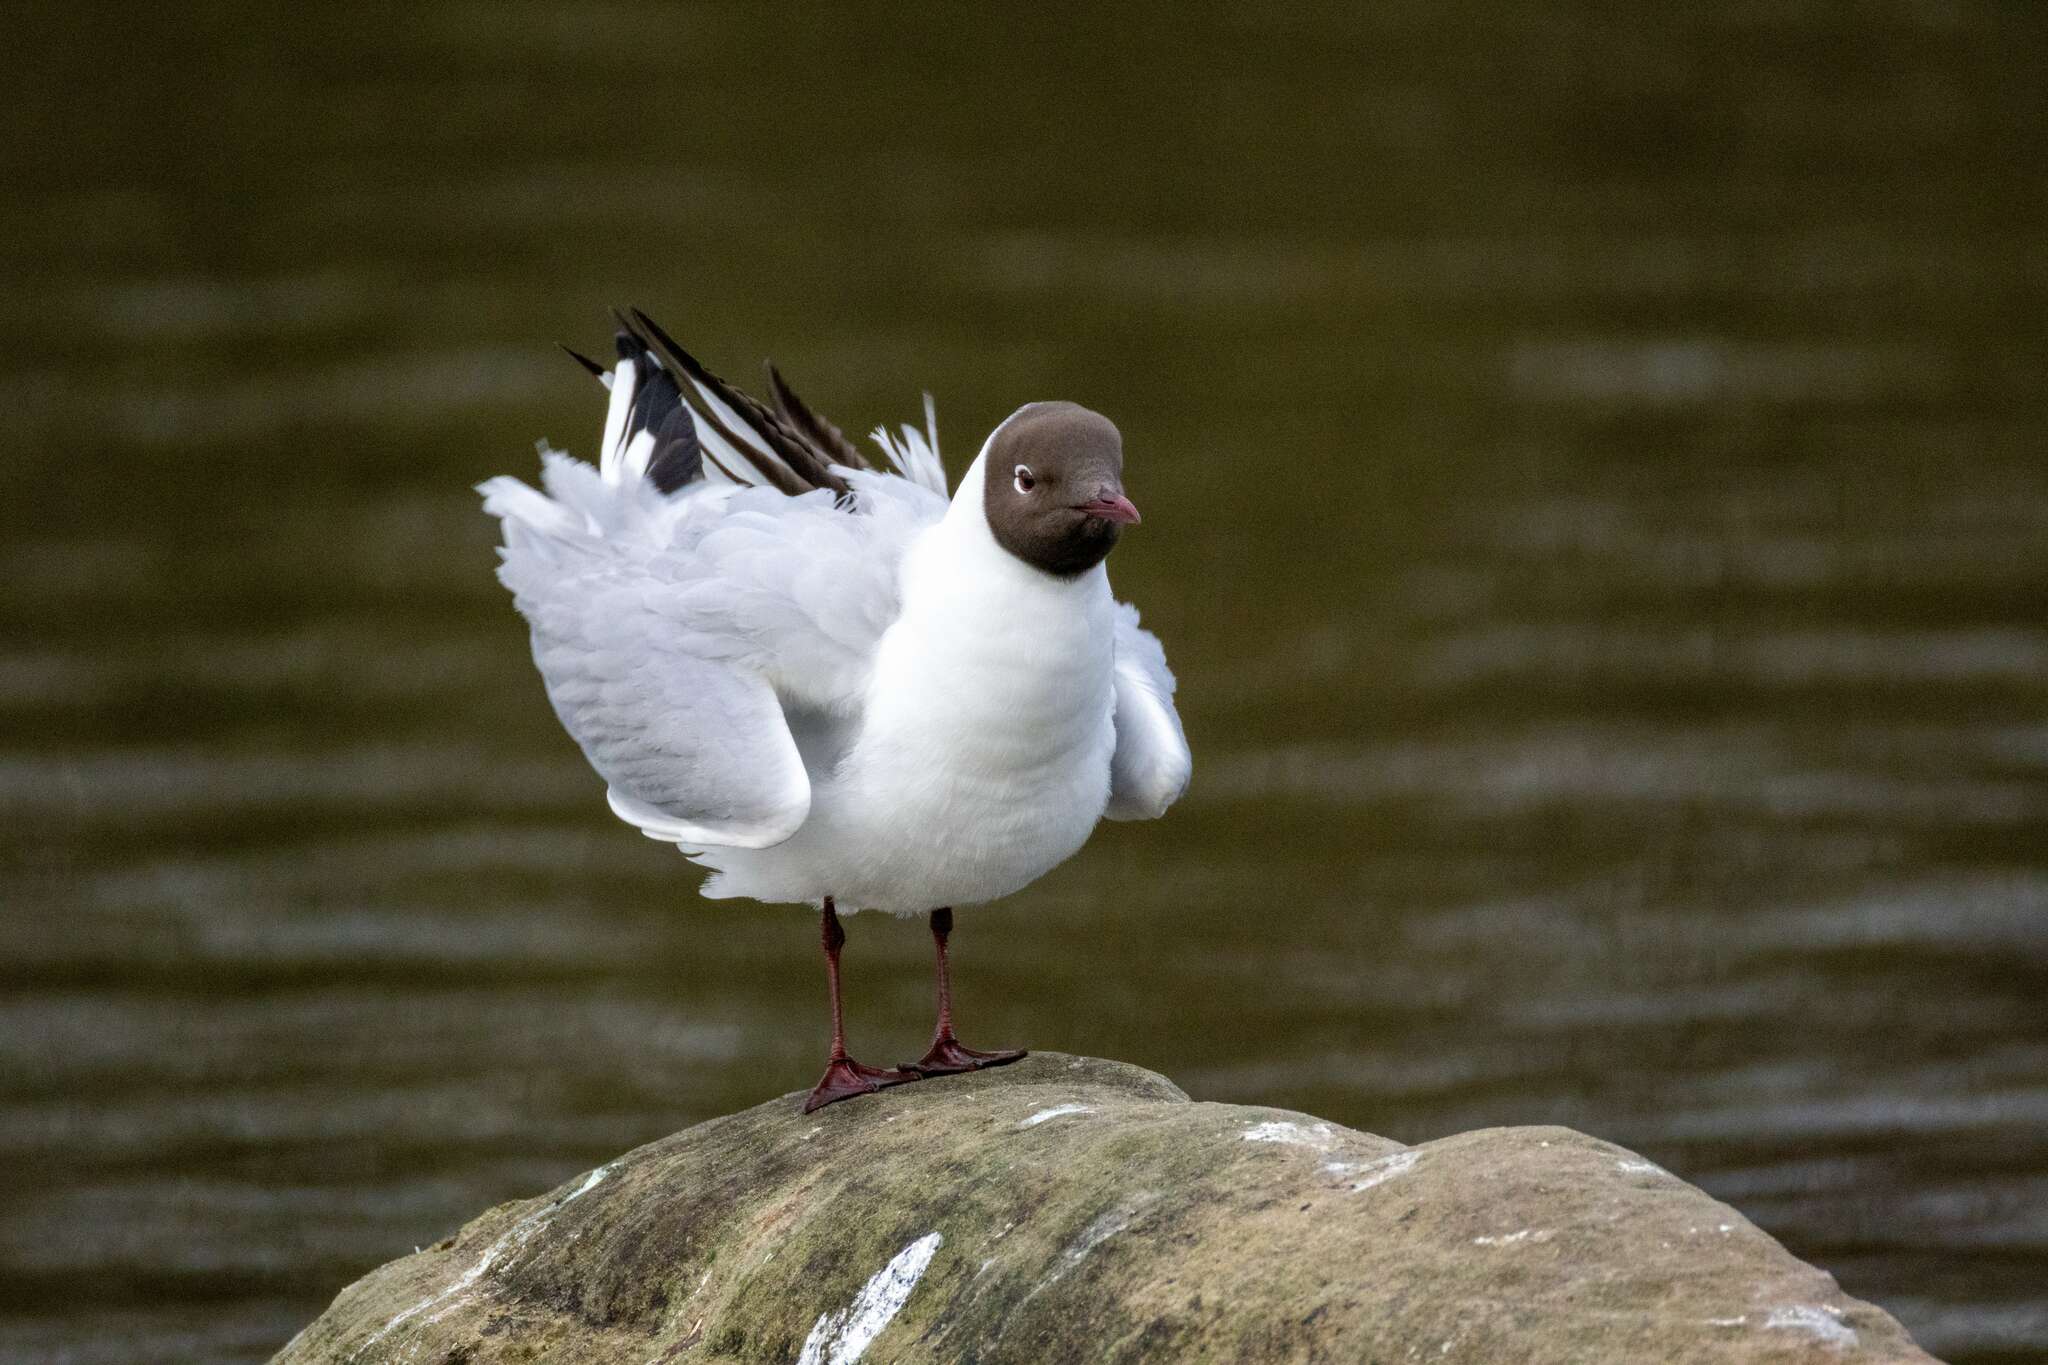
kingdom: Animalia
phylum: Chordata
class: Aves
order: Charadriiformes
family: Laridae
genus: Chroicocephalus
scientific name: Chroicocephalus ridibundus
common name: Black-headed gull
